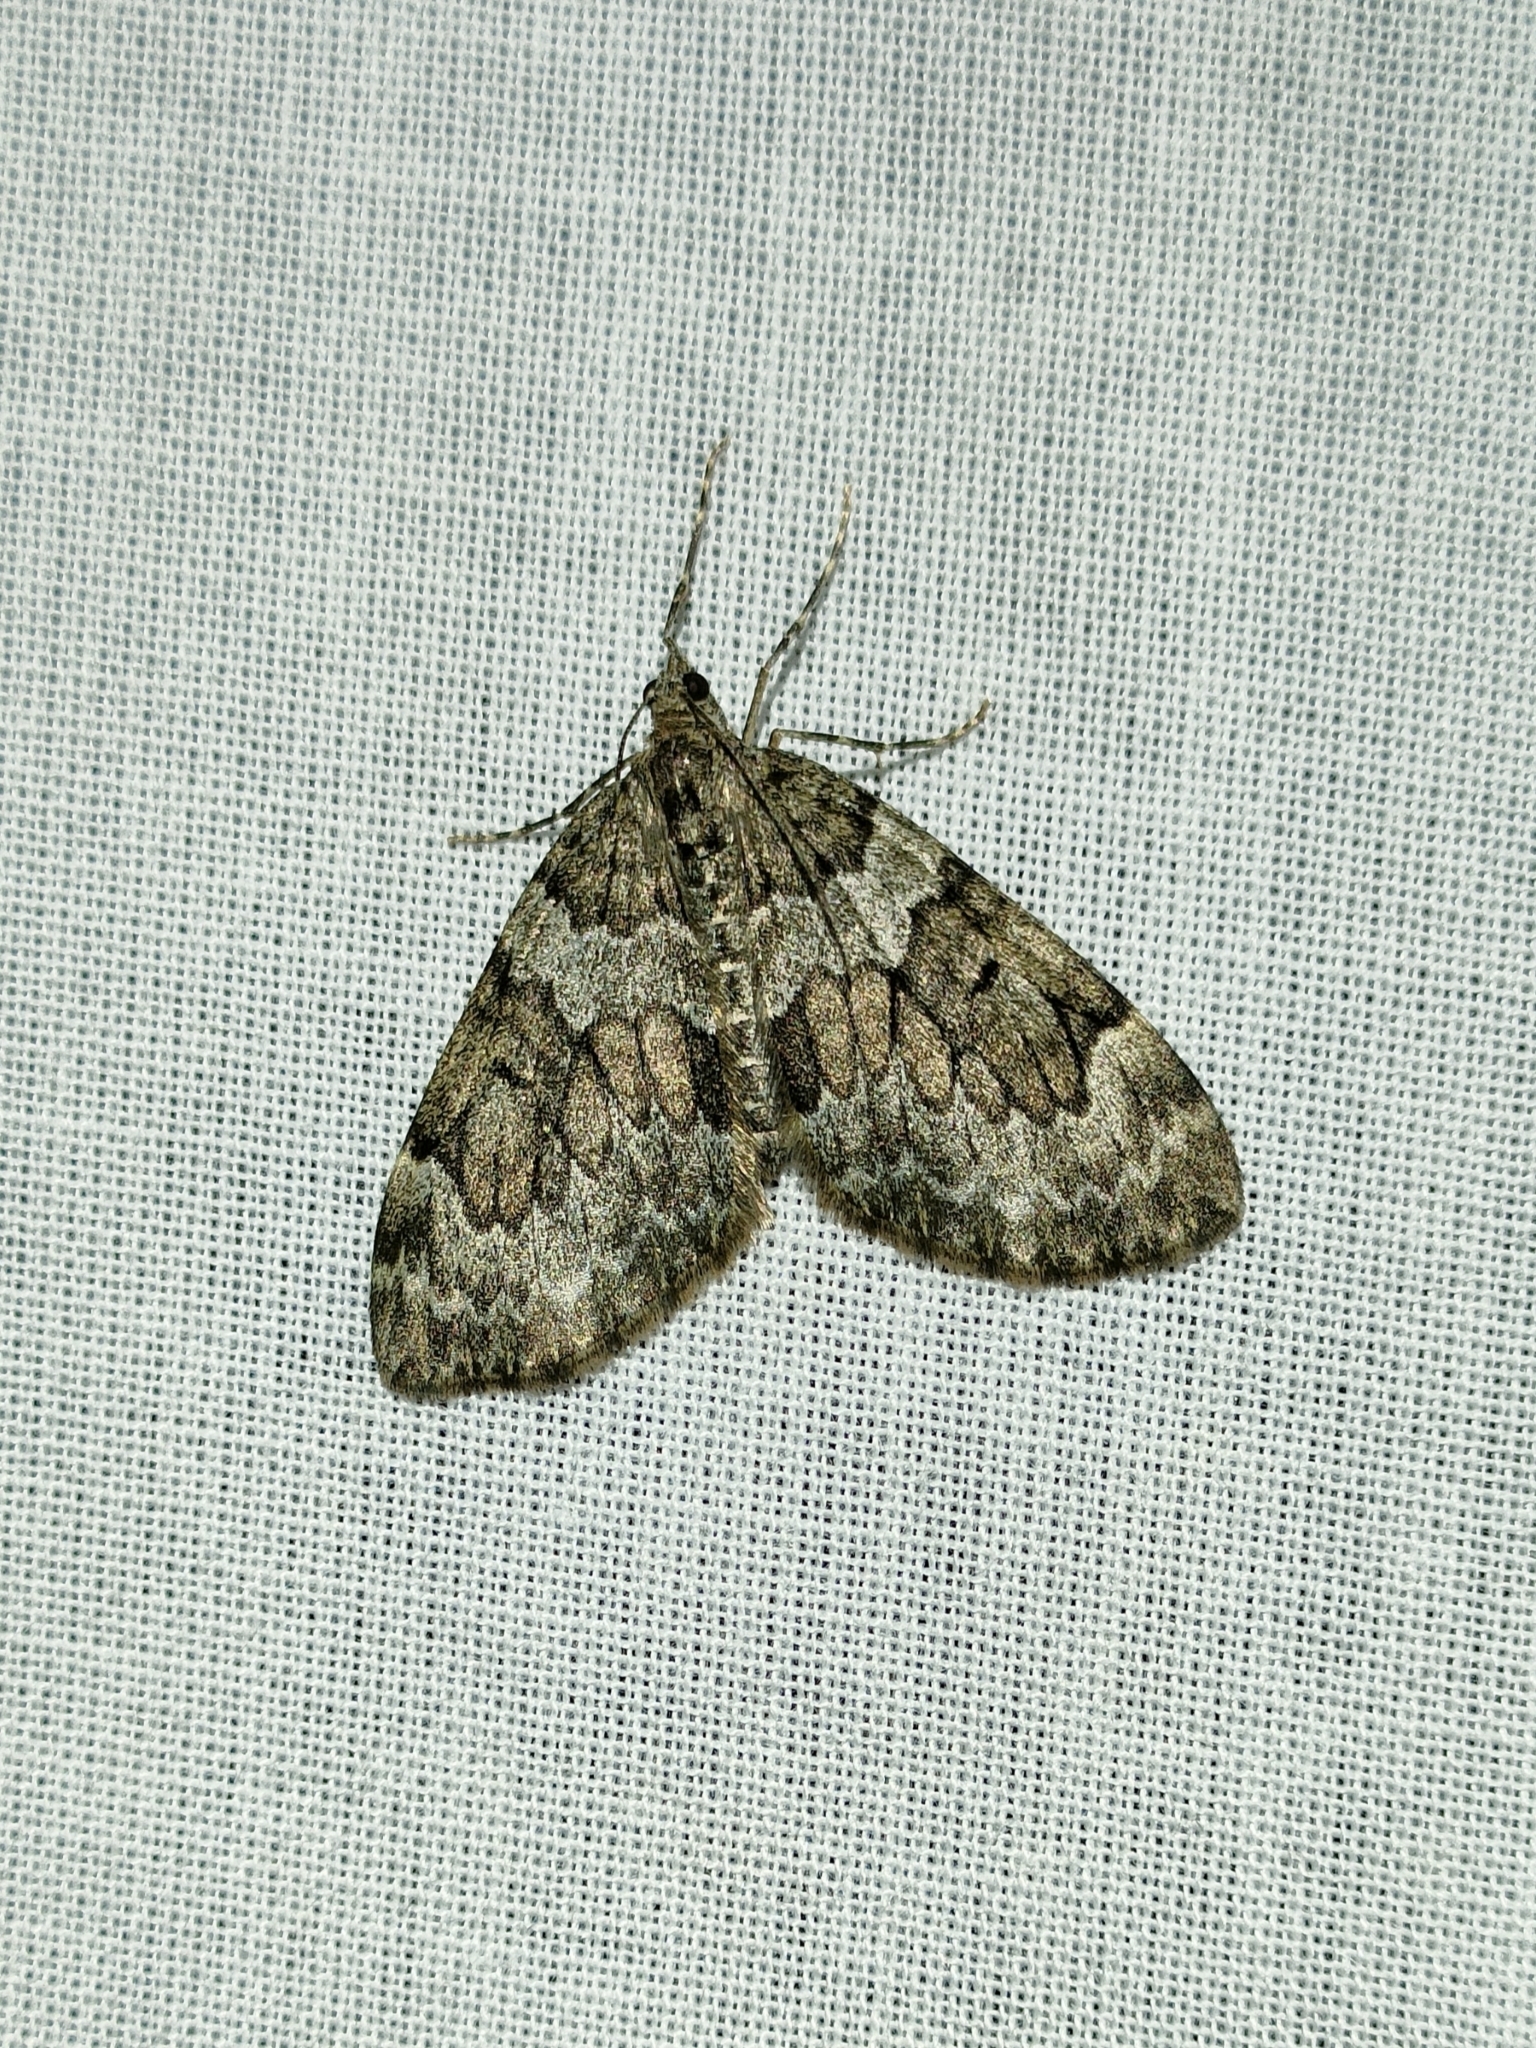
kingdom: Animalia
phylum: Arthropoda
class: Insecta
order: Lepidoptera
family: Geometridae
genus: Thera
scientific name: Thera variata
